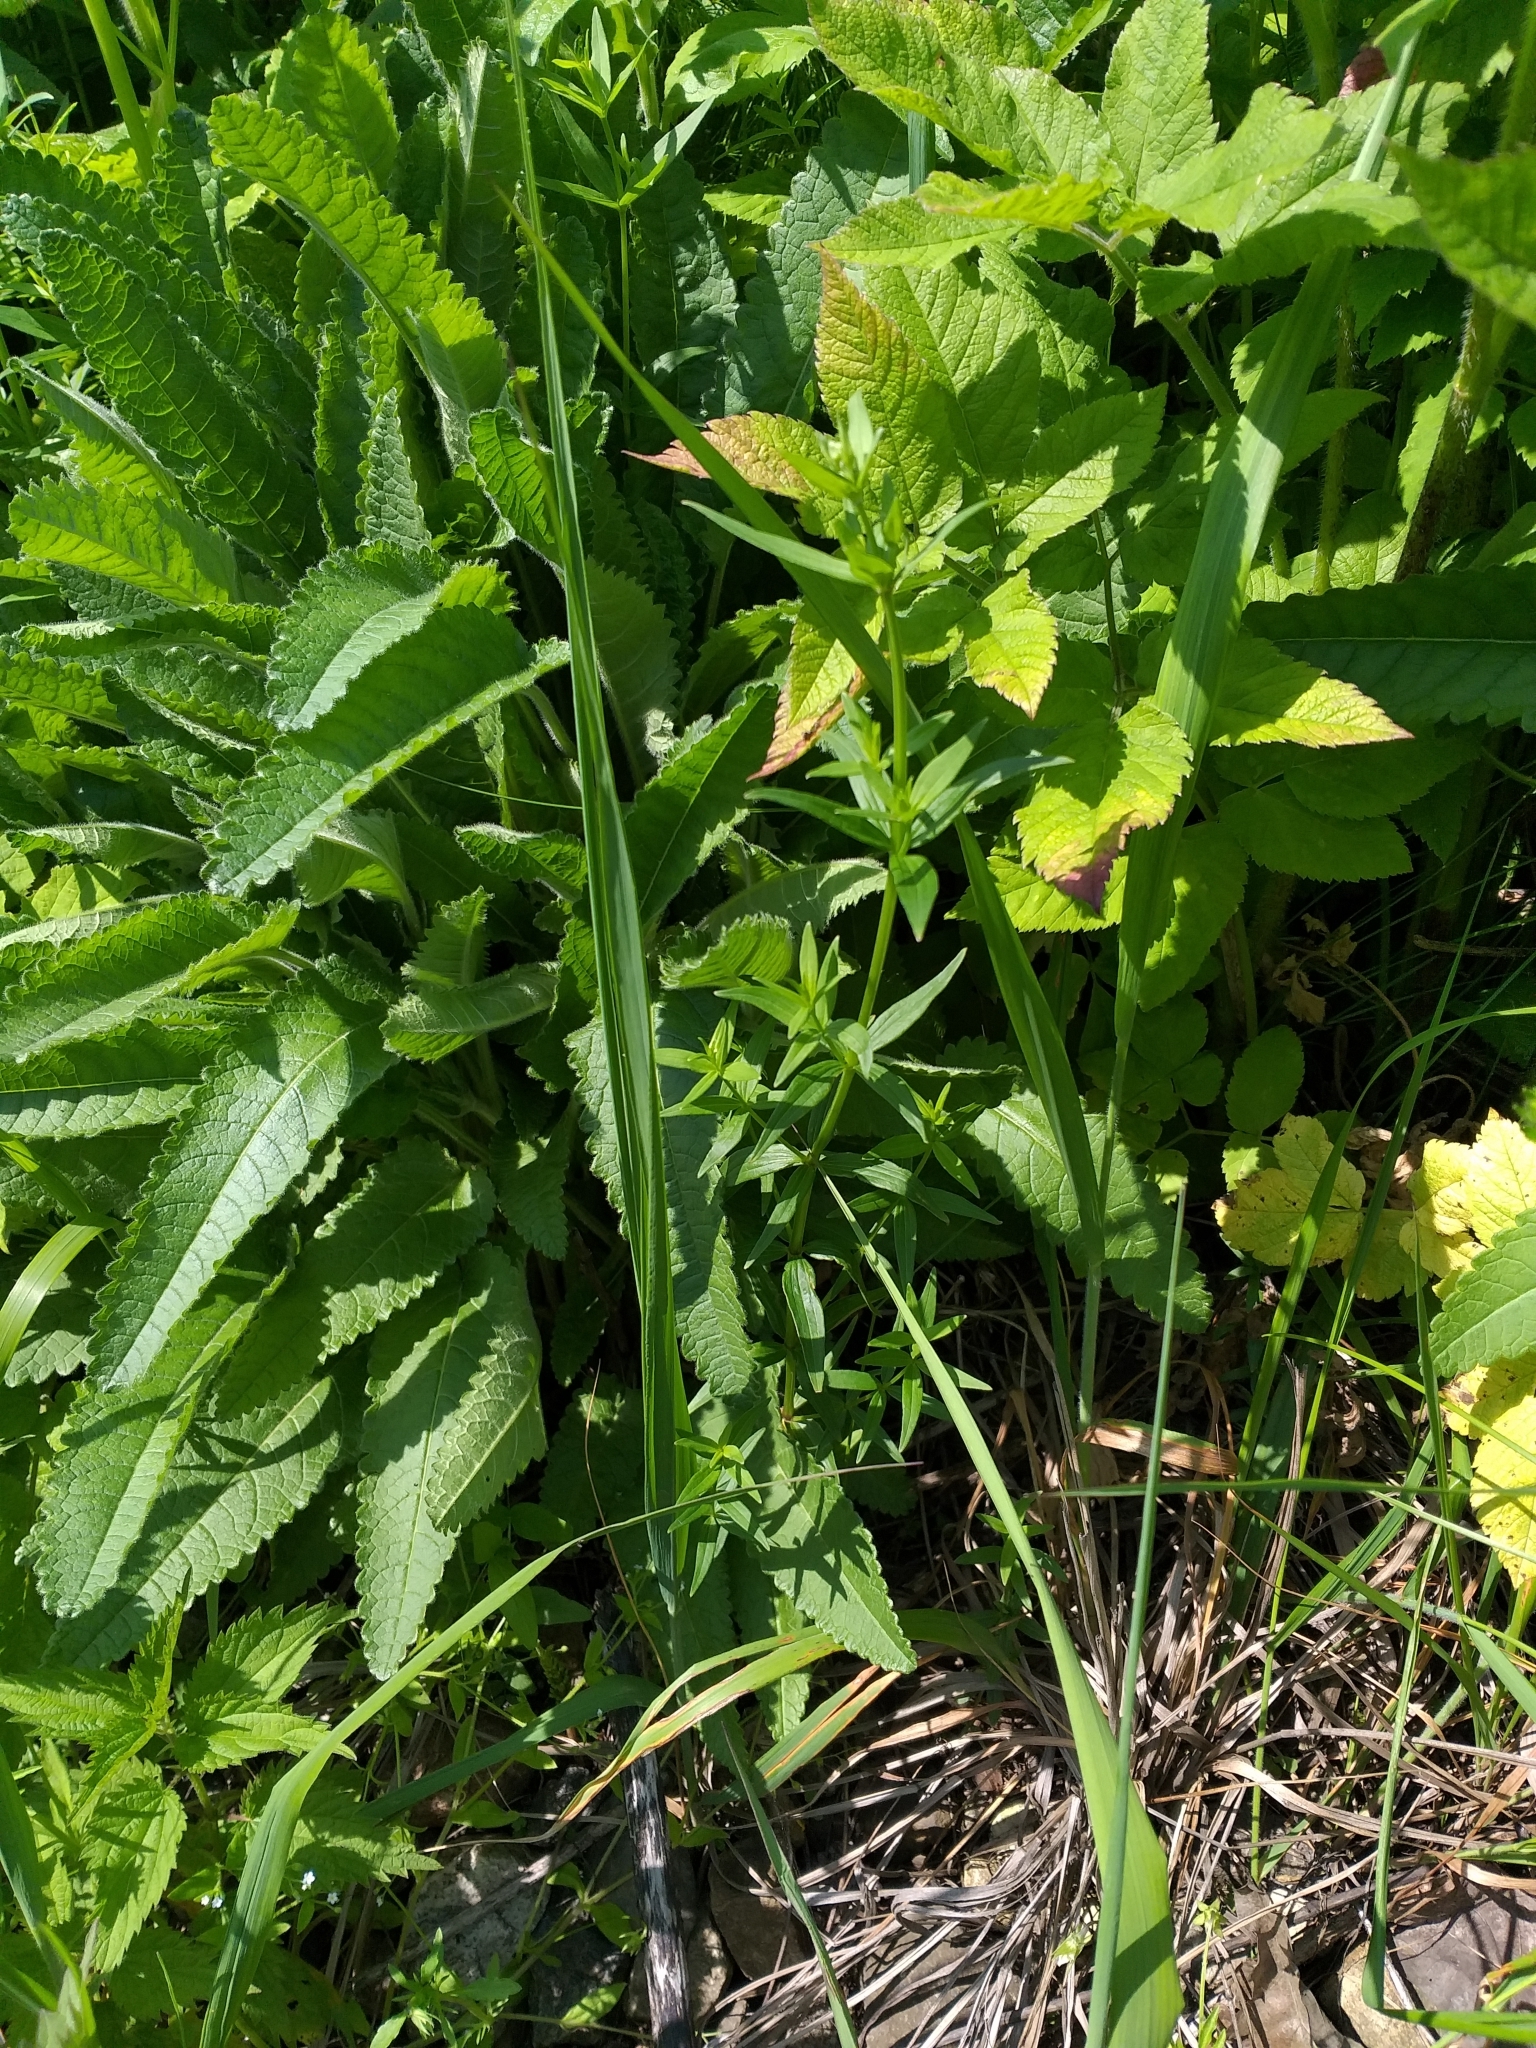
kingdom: Plantae
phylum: Tracheophyta
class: Magnoliopsida
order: Gentianales
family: Rubiaceae
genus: Galium
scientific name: Galium boreale
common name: Northern bedstraw
